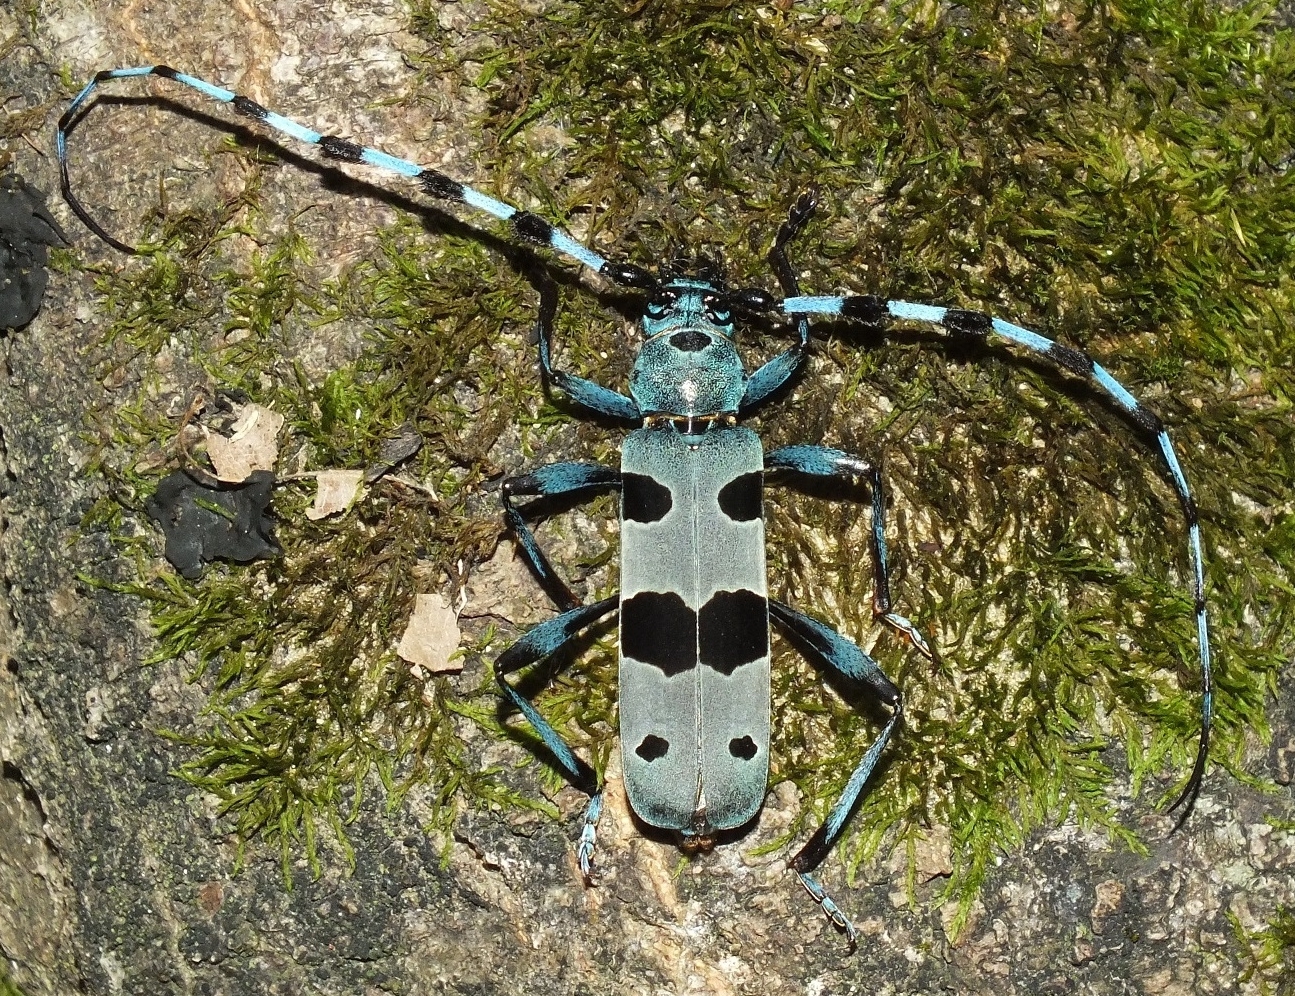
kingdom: Animalia
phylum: Arthropoda
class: Insecta
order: Coleoptera
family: Cerambycidae
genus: Rosalia
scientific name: Rosalia alpina
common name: Rosalia longicorn
